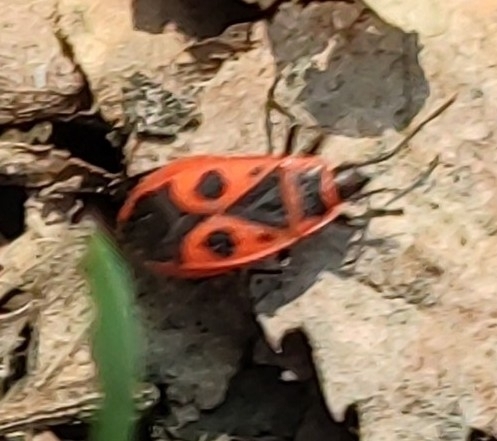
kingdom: Animalia
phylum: Arthropoda
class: Insecta
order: Hemiptera
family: Pyrrhocoridae
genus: Pyrrhocoris
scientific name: Pyrrhocoris apterus
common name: Firebug
